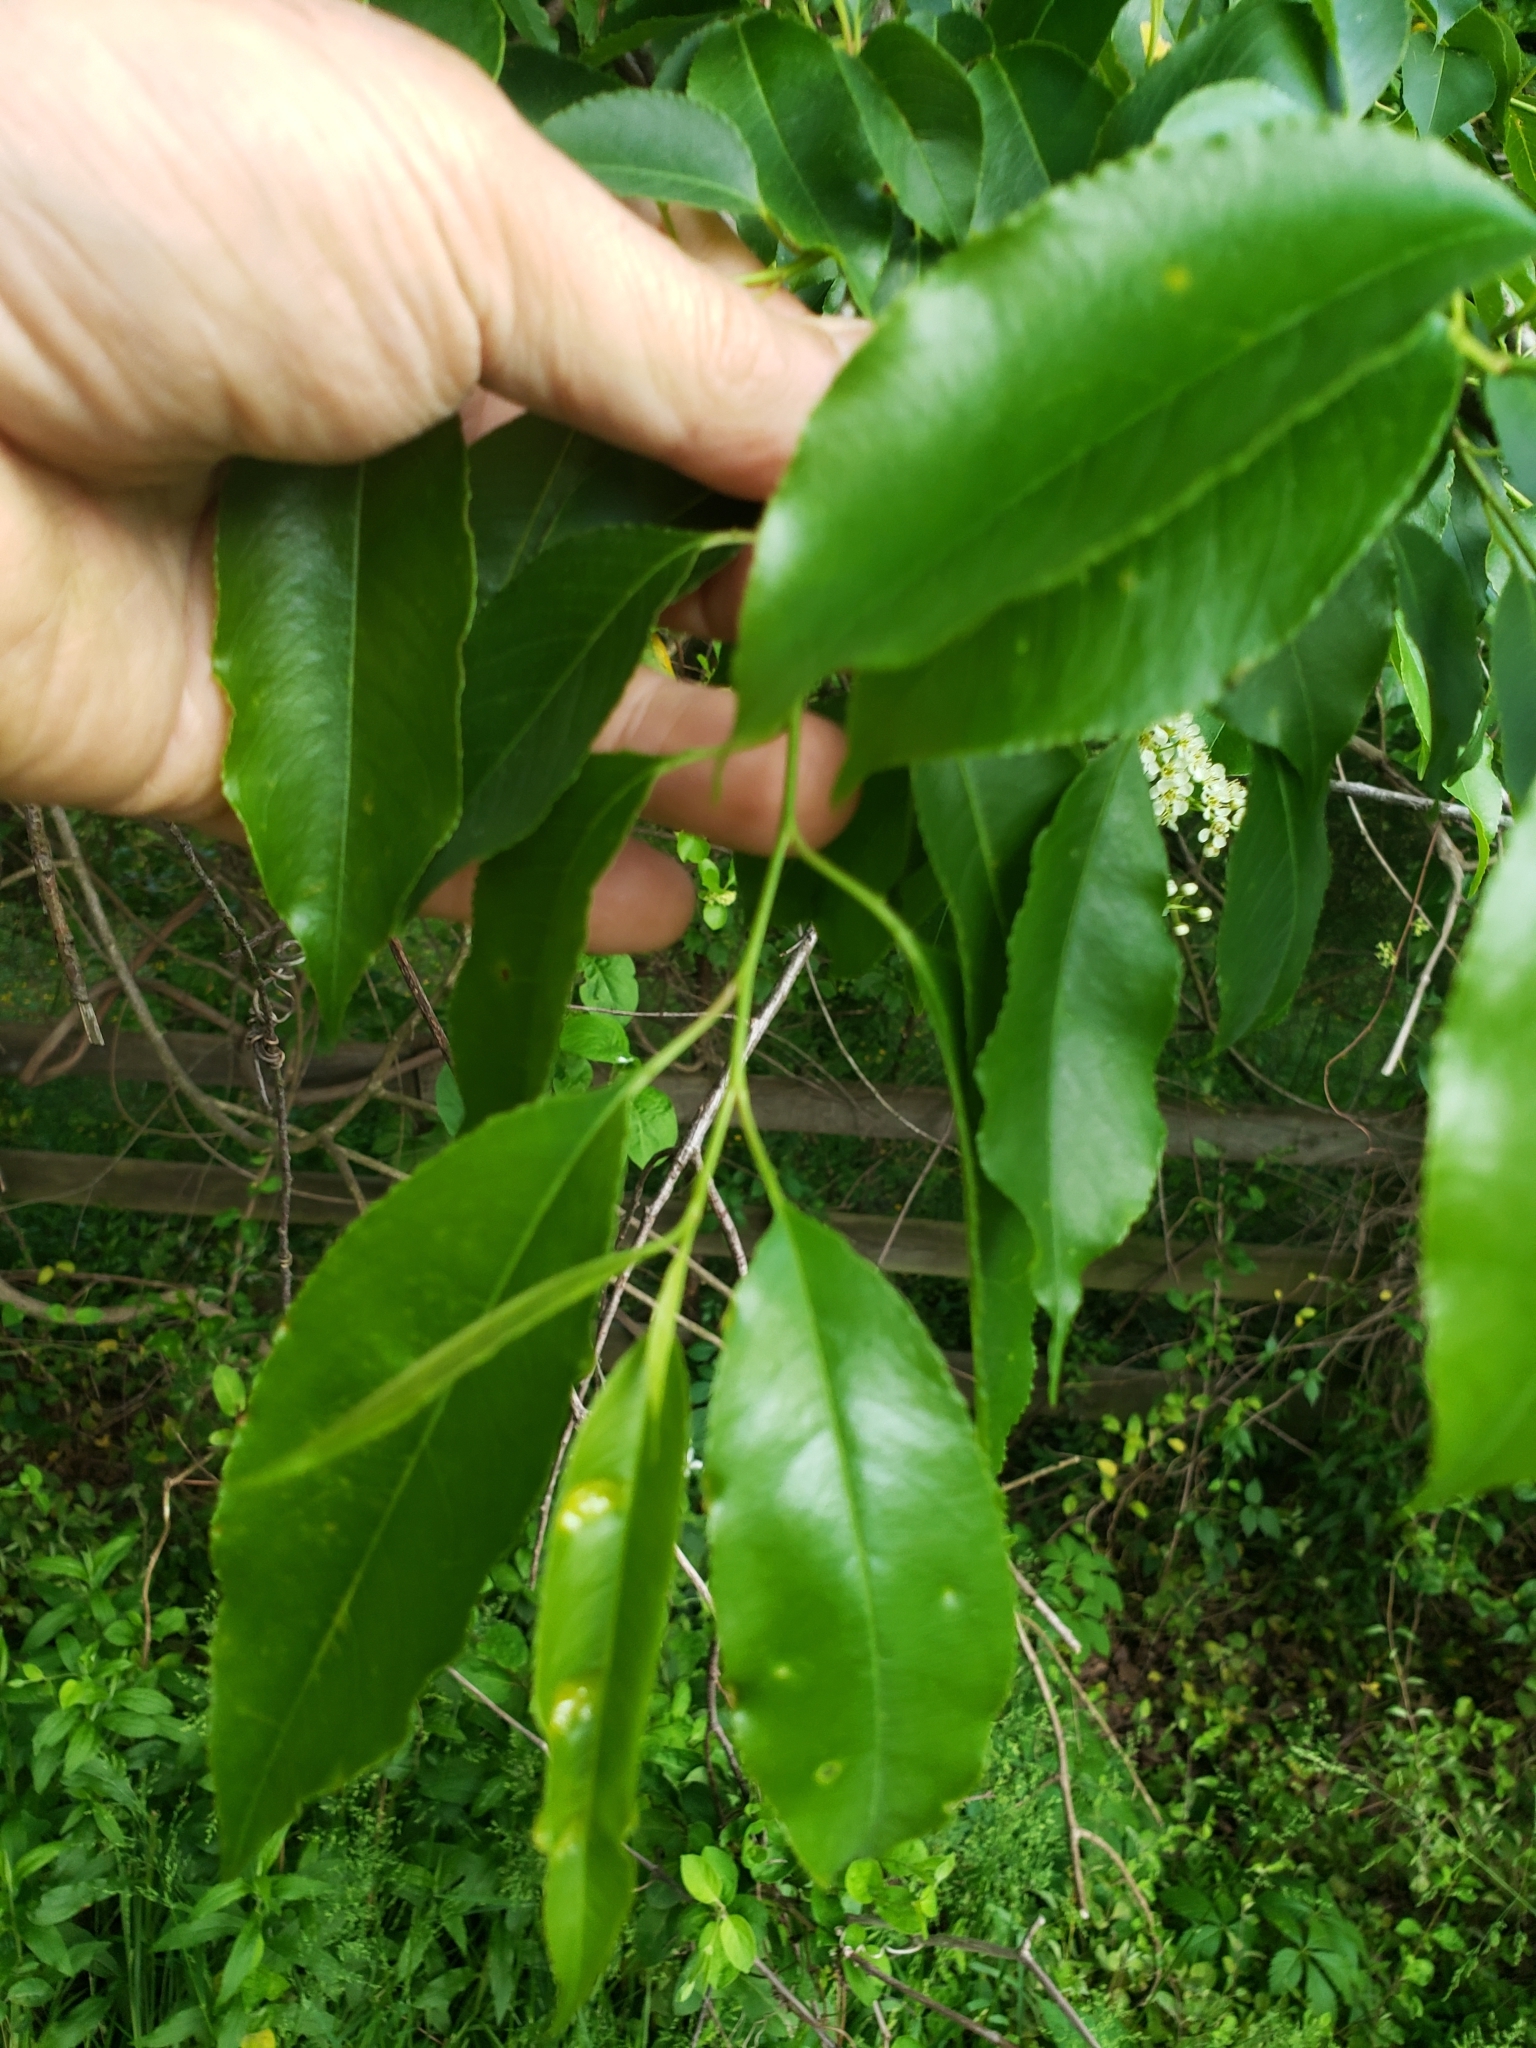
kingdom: Fungi
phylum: Ascomycota
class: Taphrinomycetes
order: Taphrinales
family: Taphrinaceae
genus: Taphrina
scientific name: Taphrina farlowii
